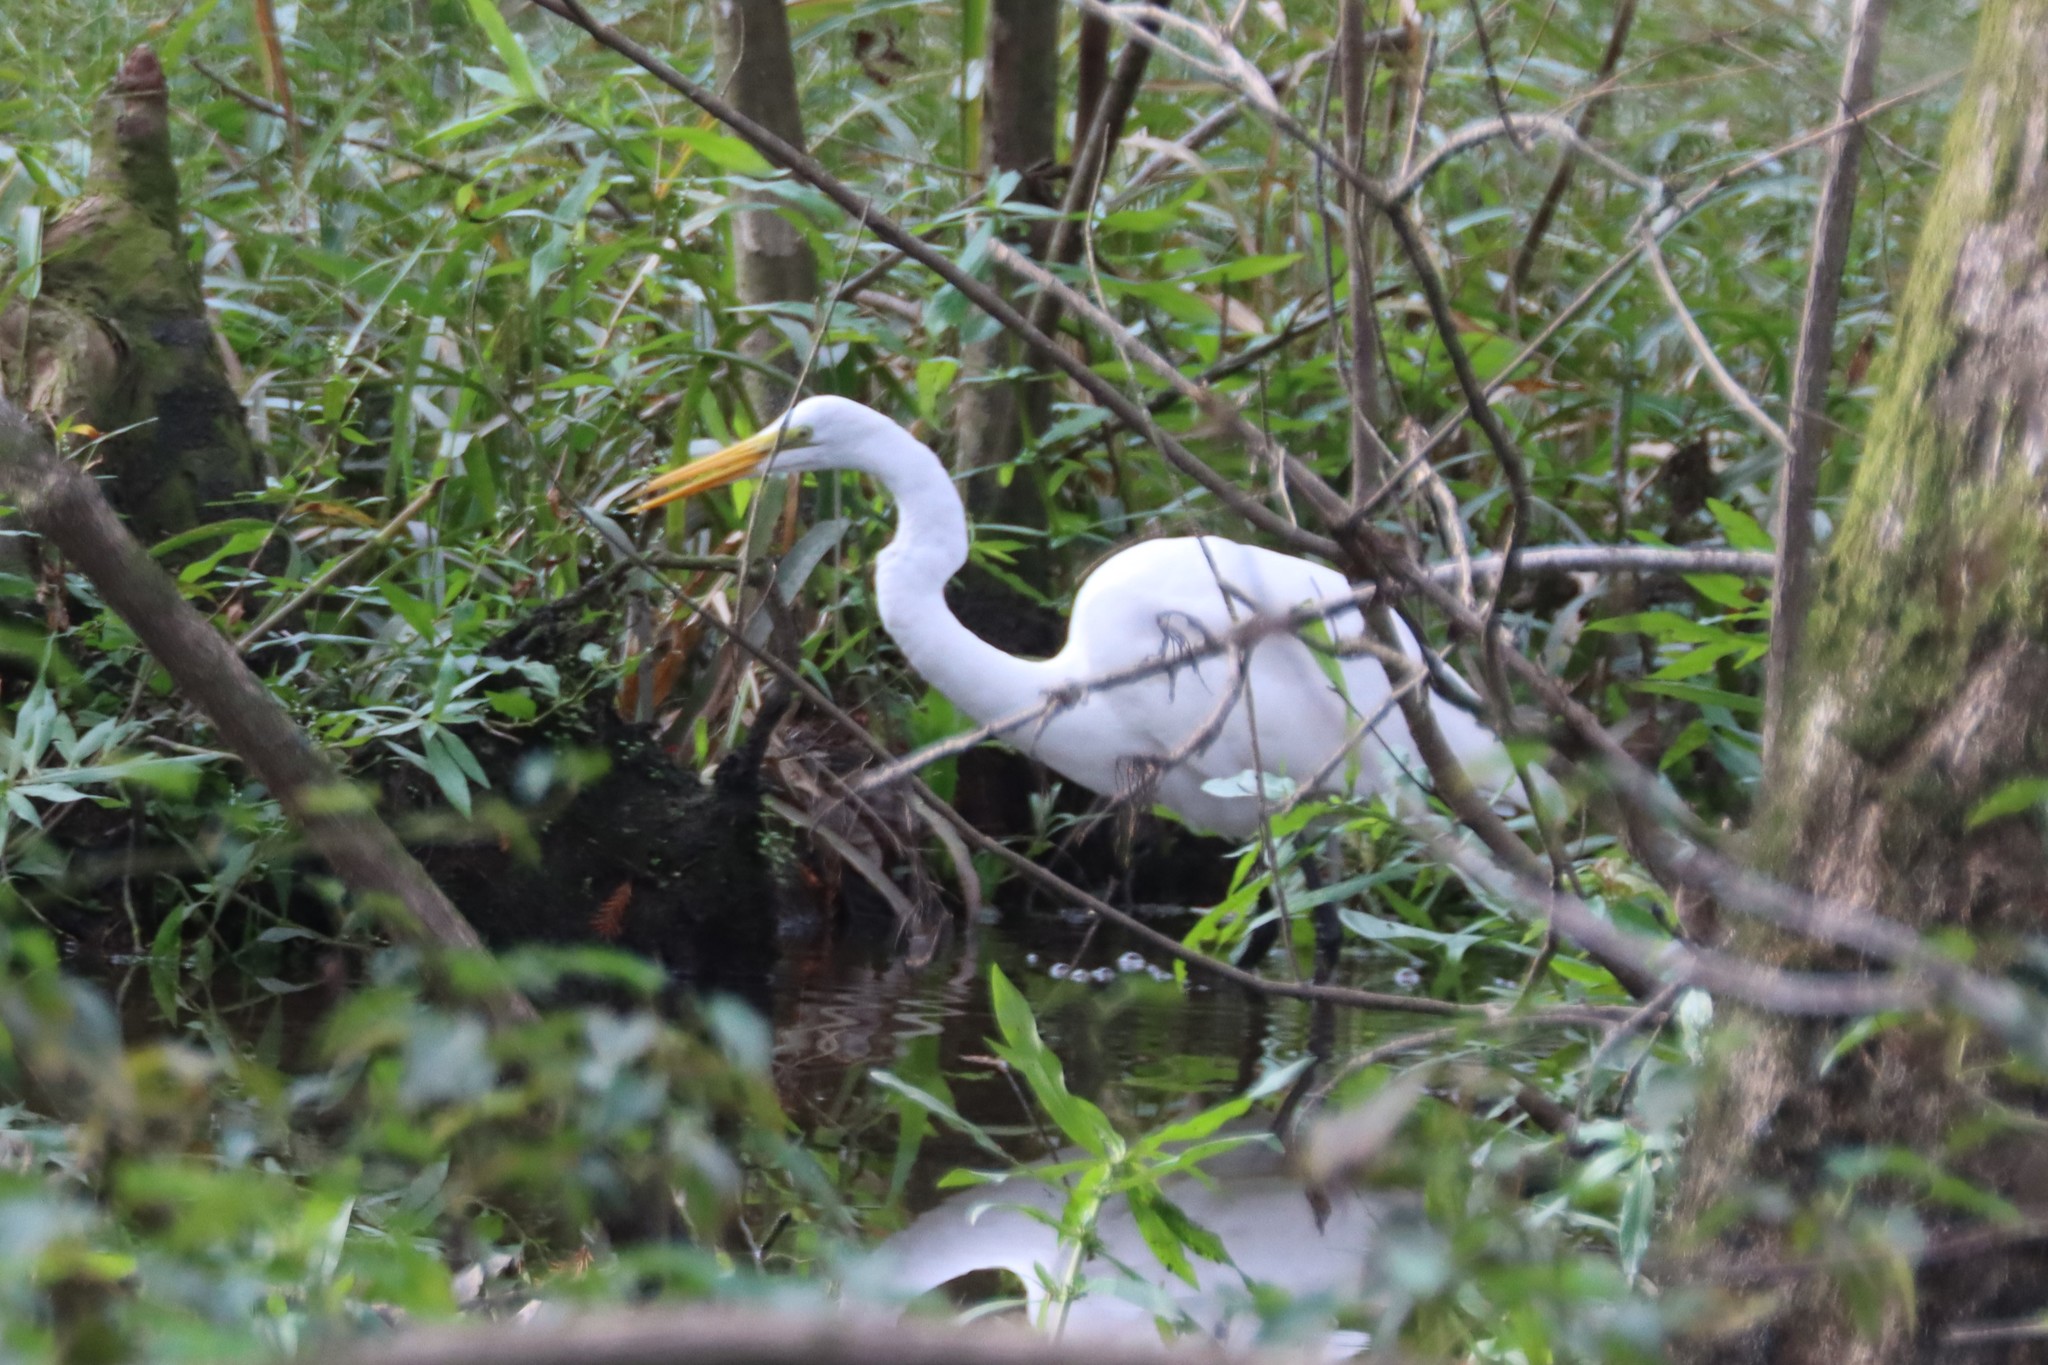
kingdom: Animalia
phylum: Chordata
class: Aves
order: Pelecaniformes
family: Ardeidae
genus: Ardea
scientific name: Ardea alba
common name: Great egret
